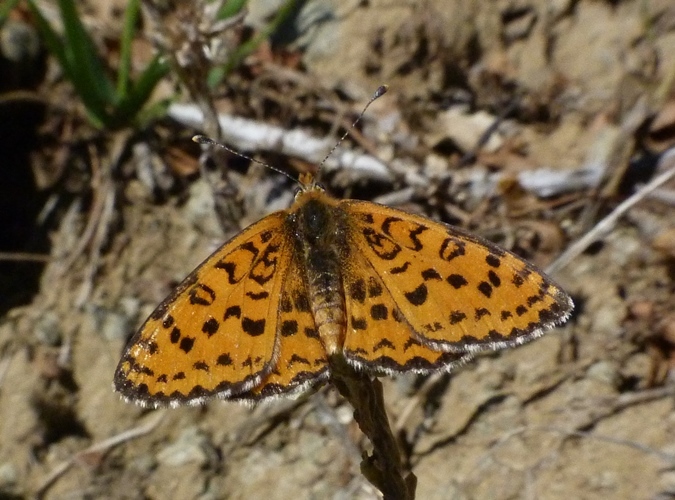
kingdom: Animalia
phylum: Arthropoda
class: Insecta
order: Lepidoptera
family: Nymphalidae
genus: Melitaea
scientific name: Melitaea trivia
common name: Lesser spotted fritillary
